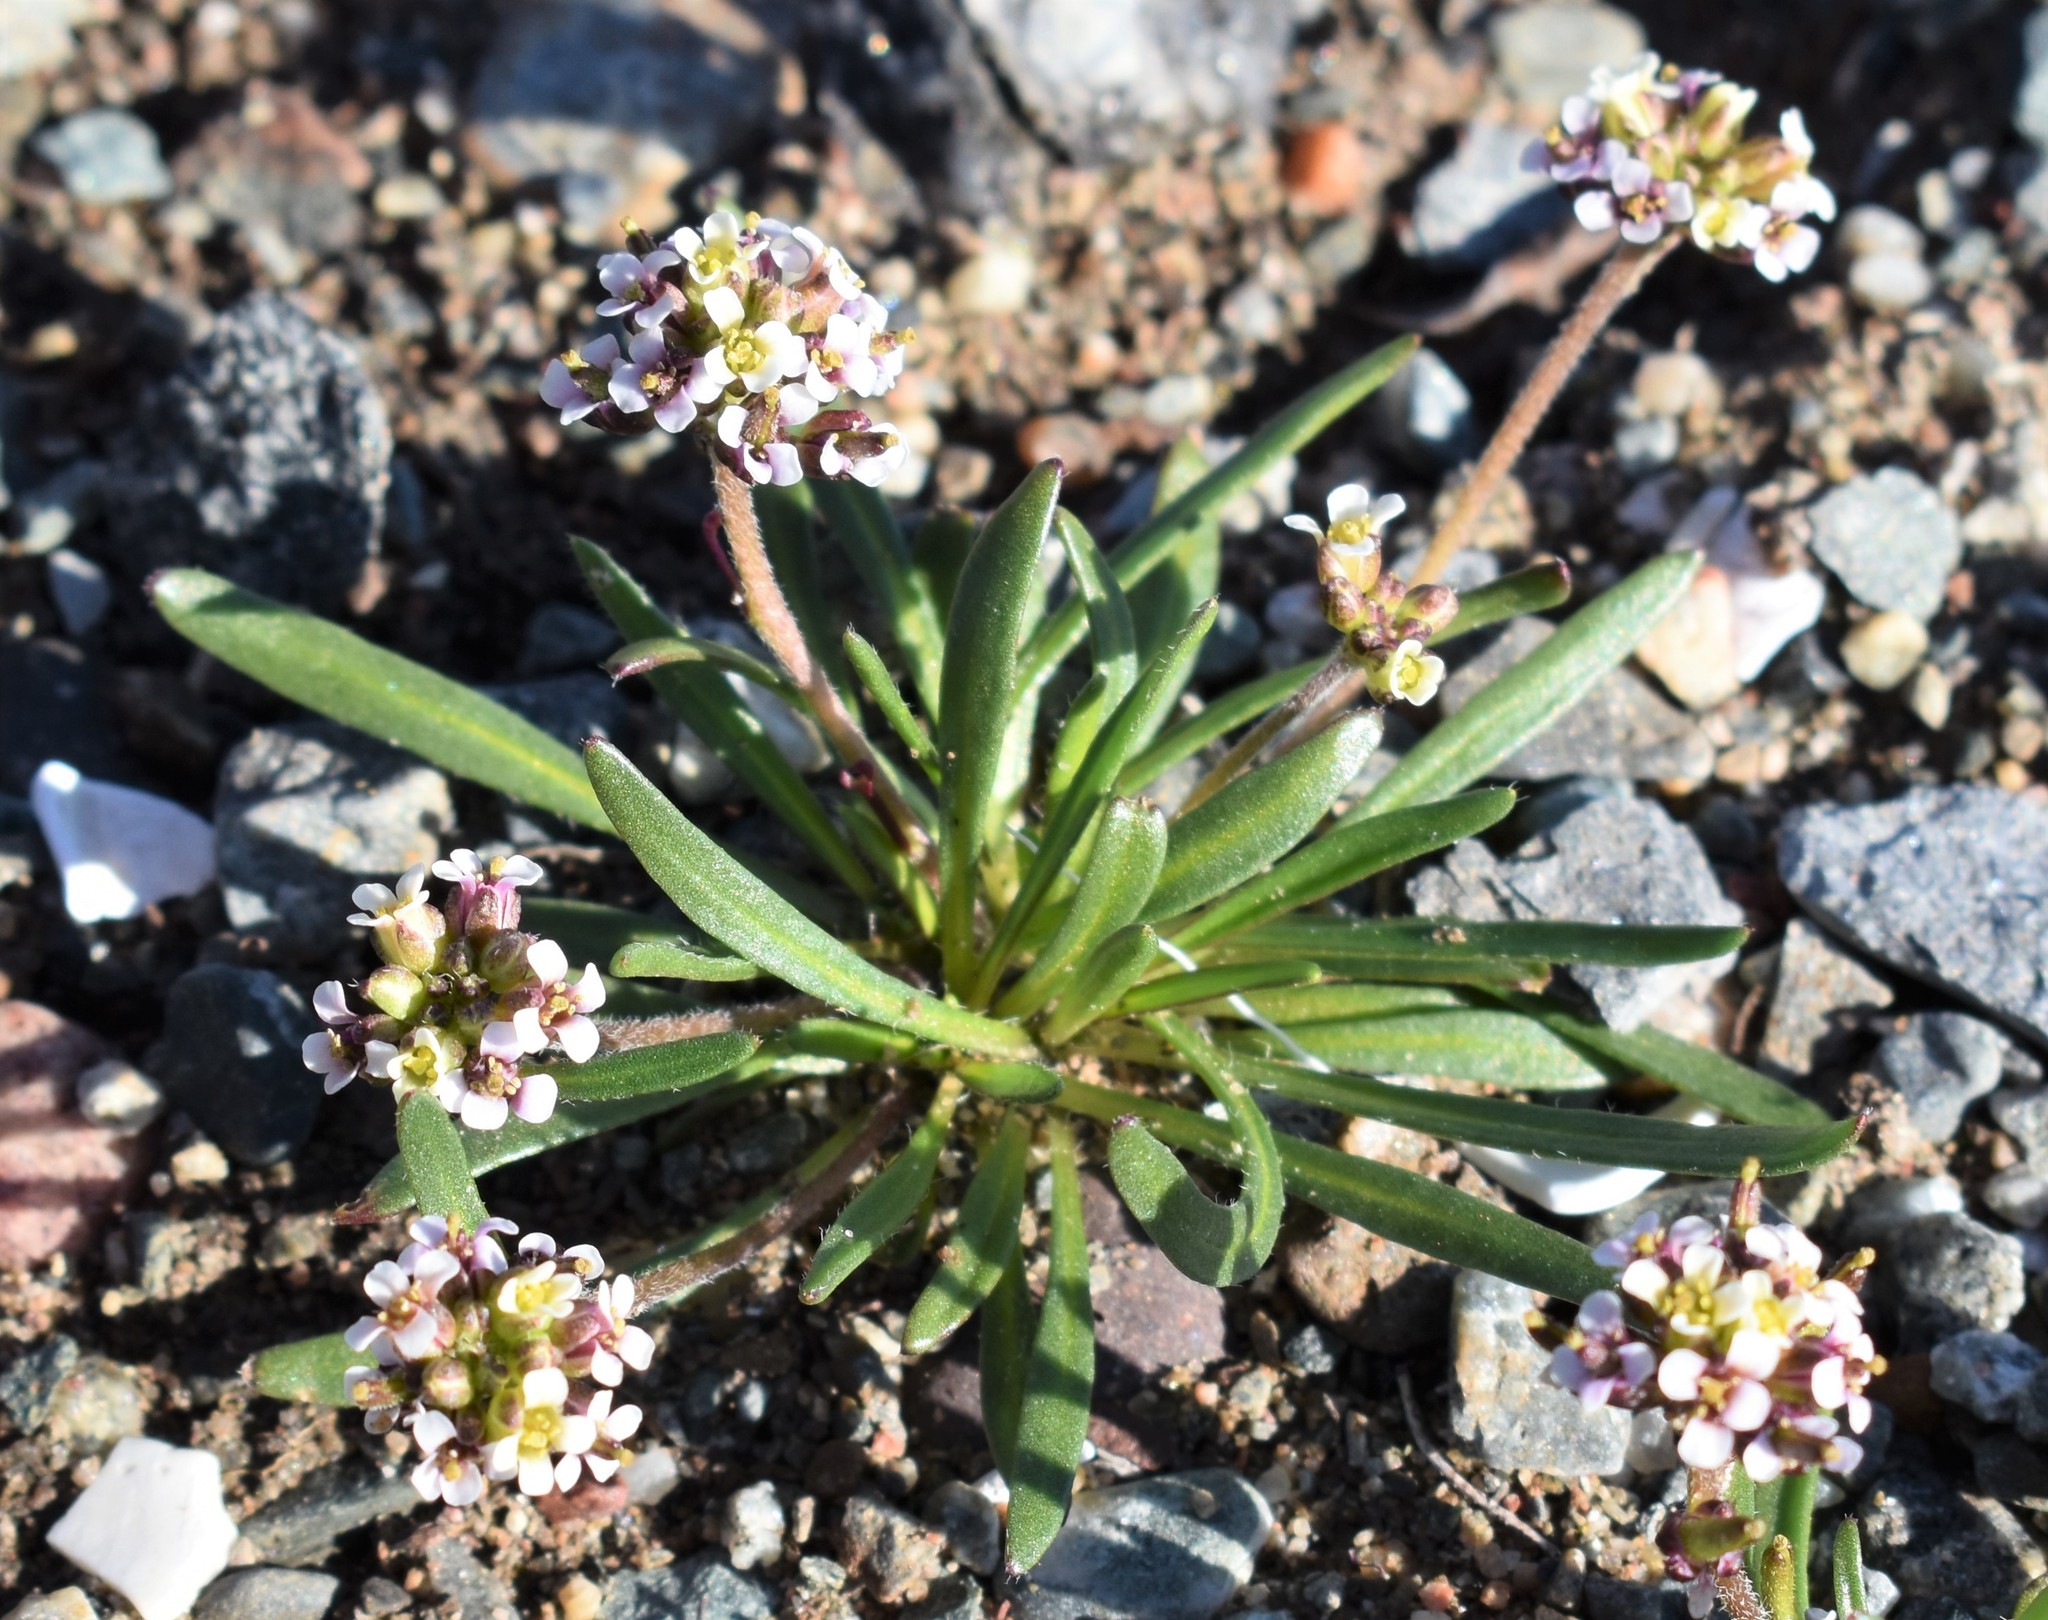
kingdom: Plantae
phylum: Tracheophyta
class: Magnoliopsida
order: Brassicales
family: Brassicaceae
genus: Braya
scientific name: Braya glabella
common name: Smooth braya
